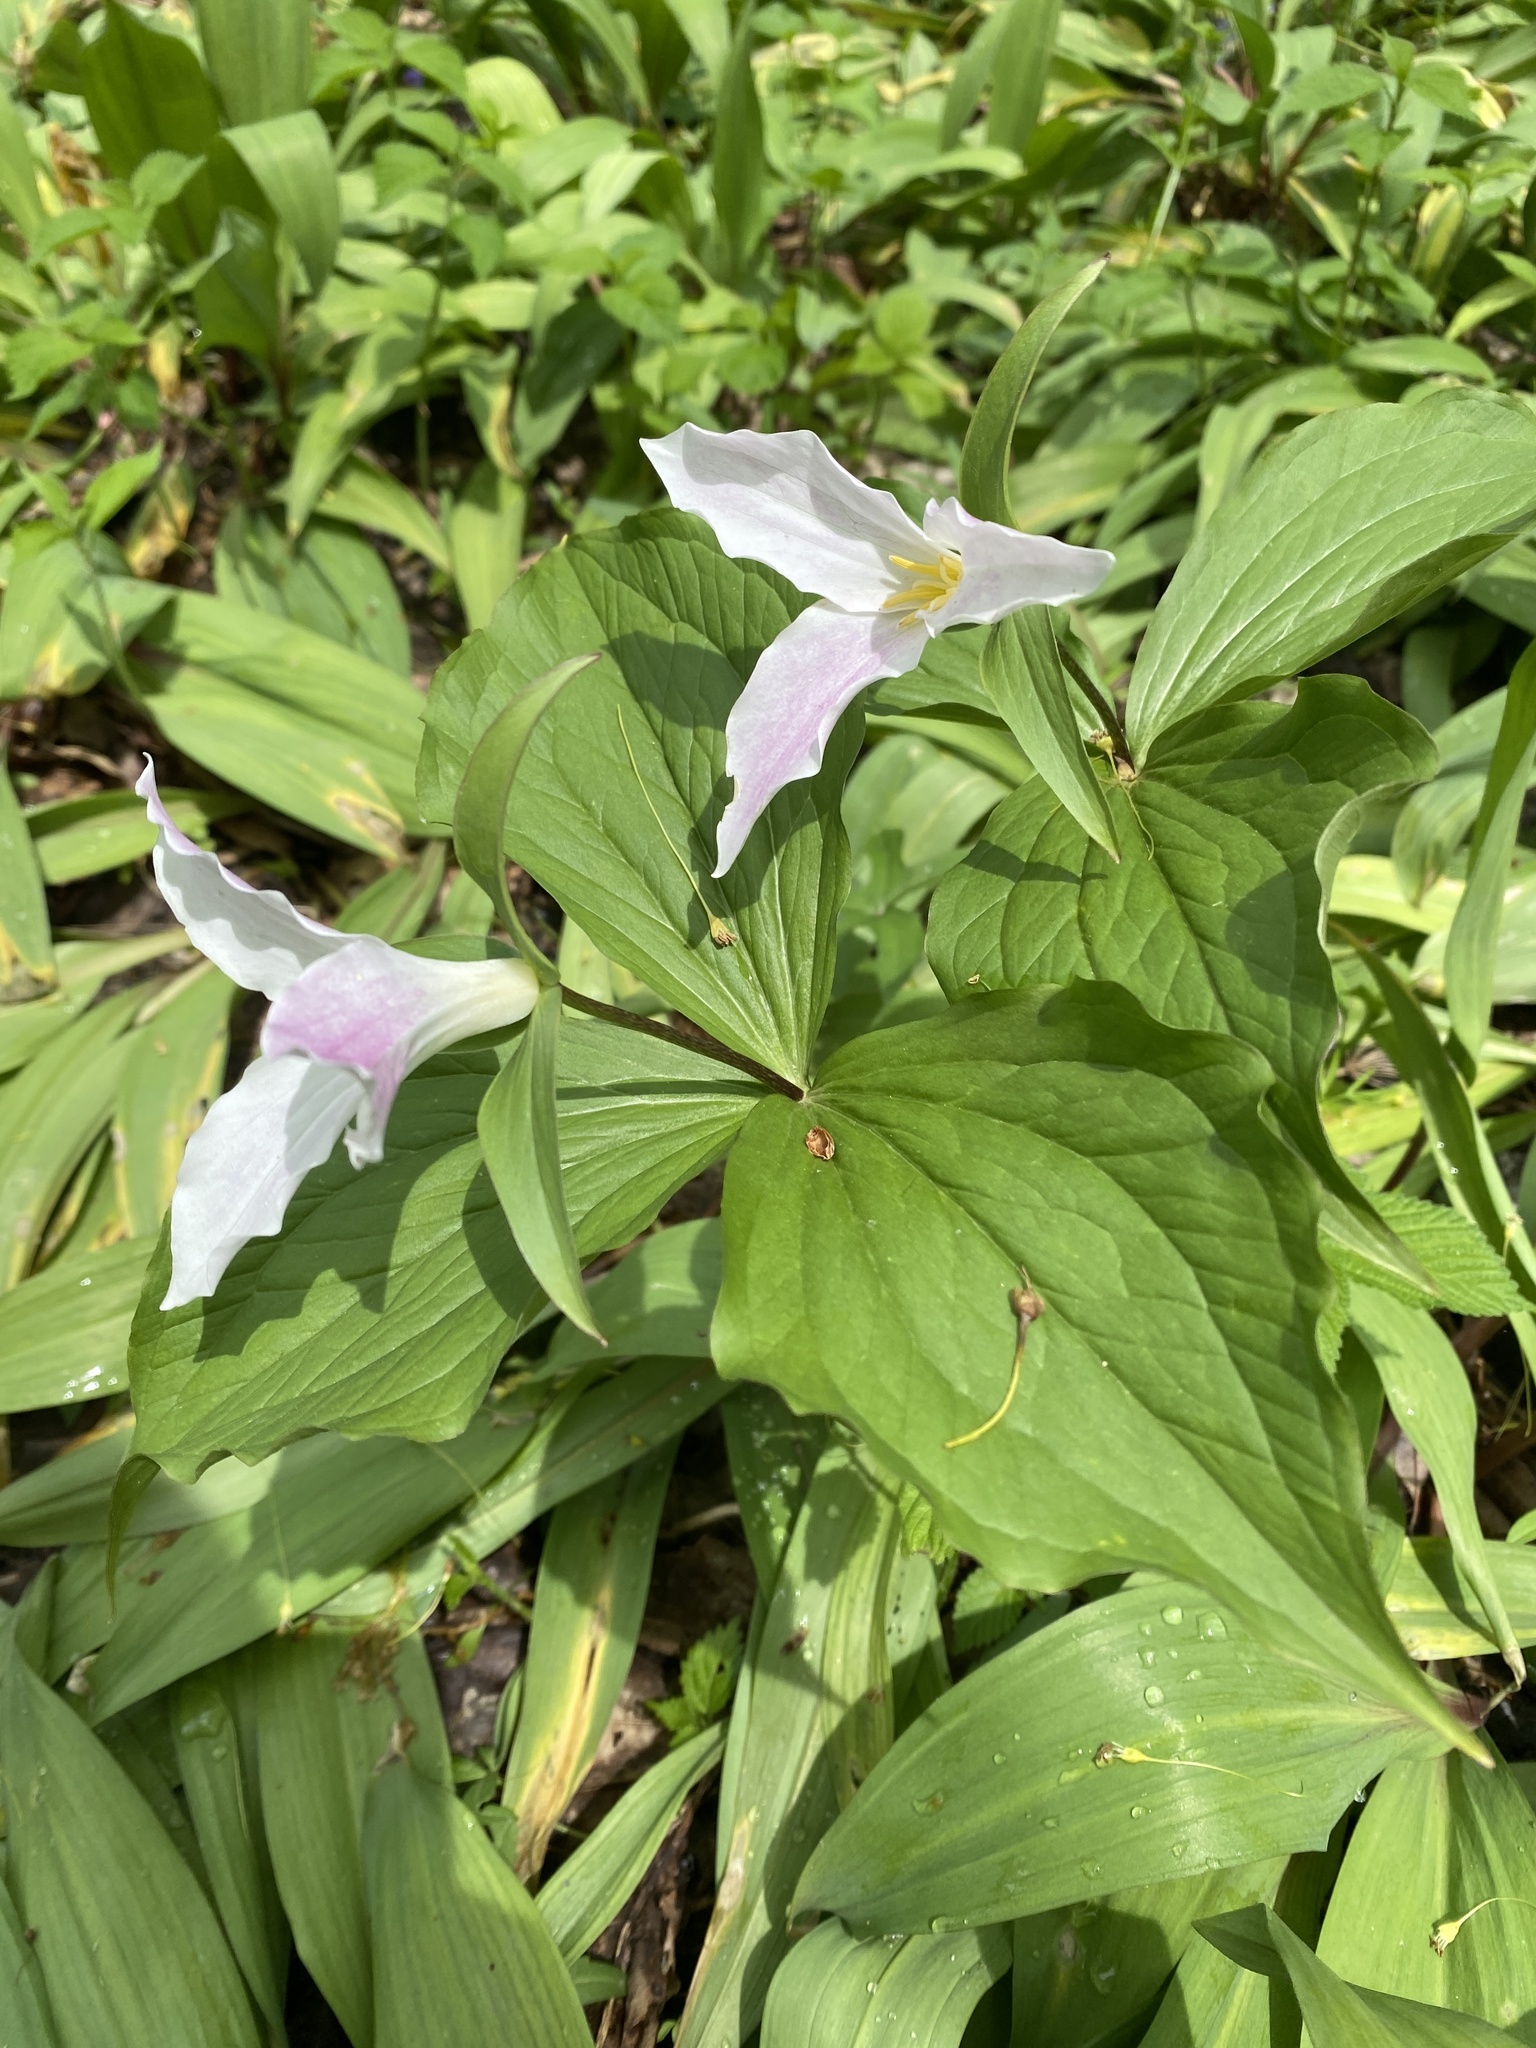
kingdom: Plantae
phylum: Tracheophyta
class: Liliopsida
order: Liliales
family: Melanthiaceae
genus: Trillium
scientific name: Trillium grandiflorum
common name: Great white trillium
